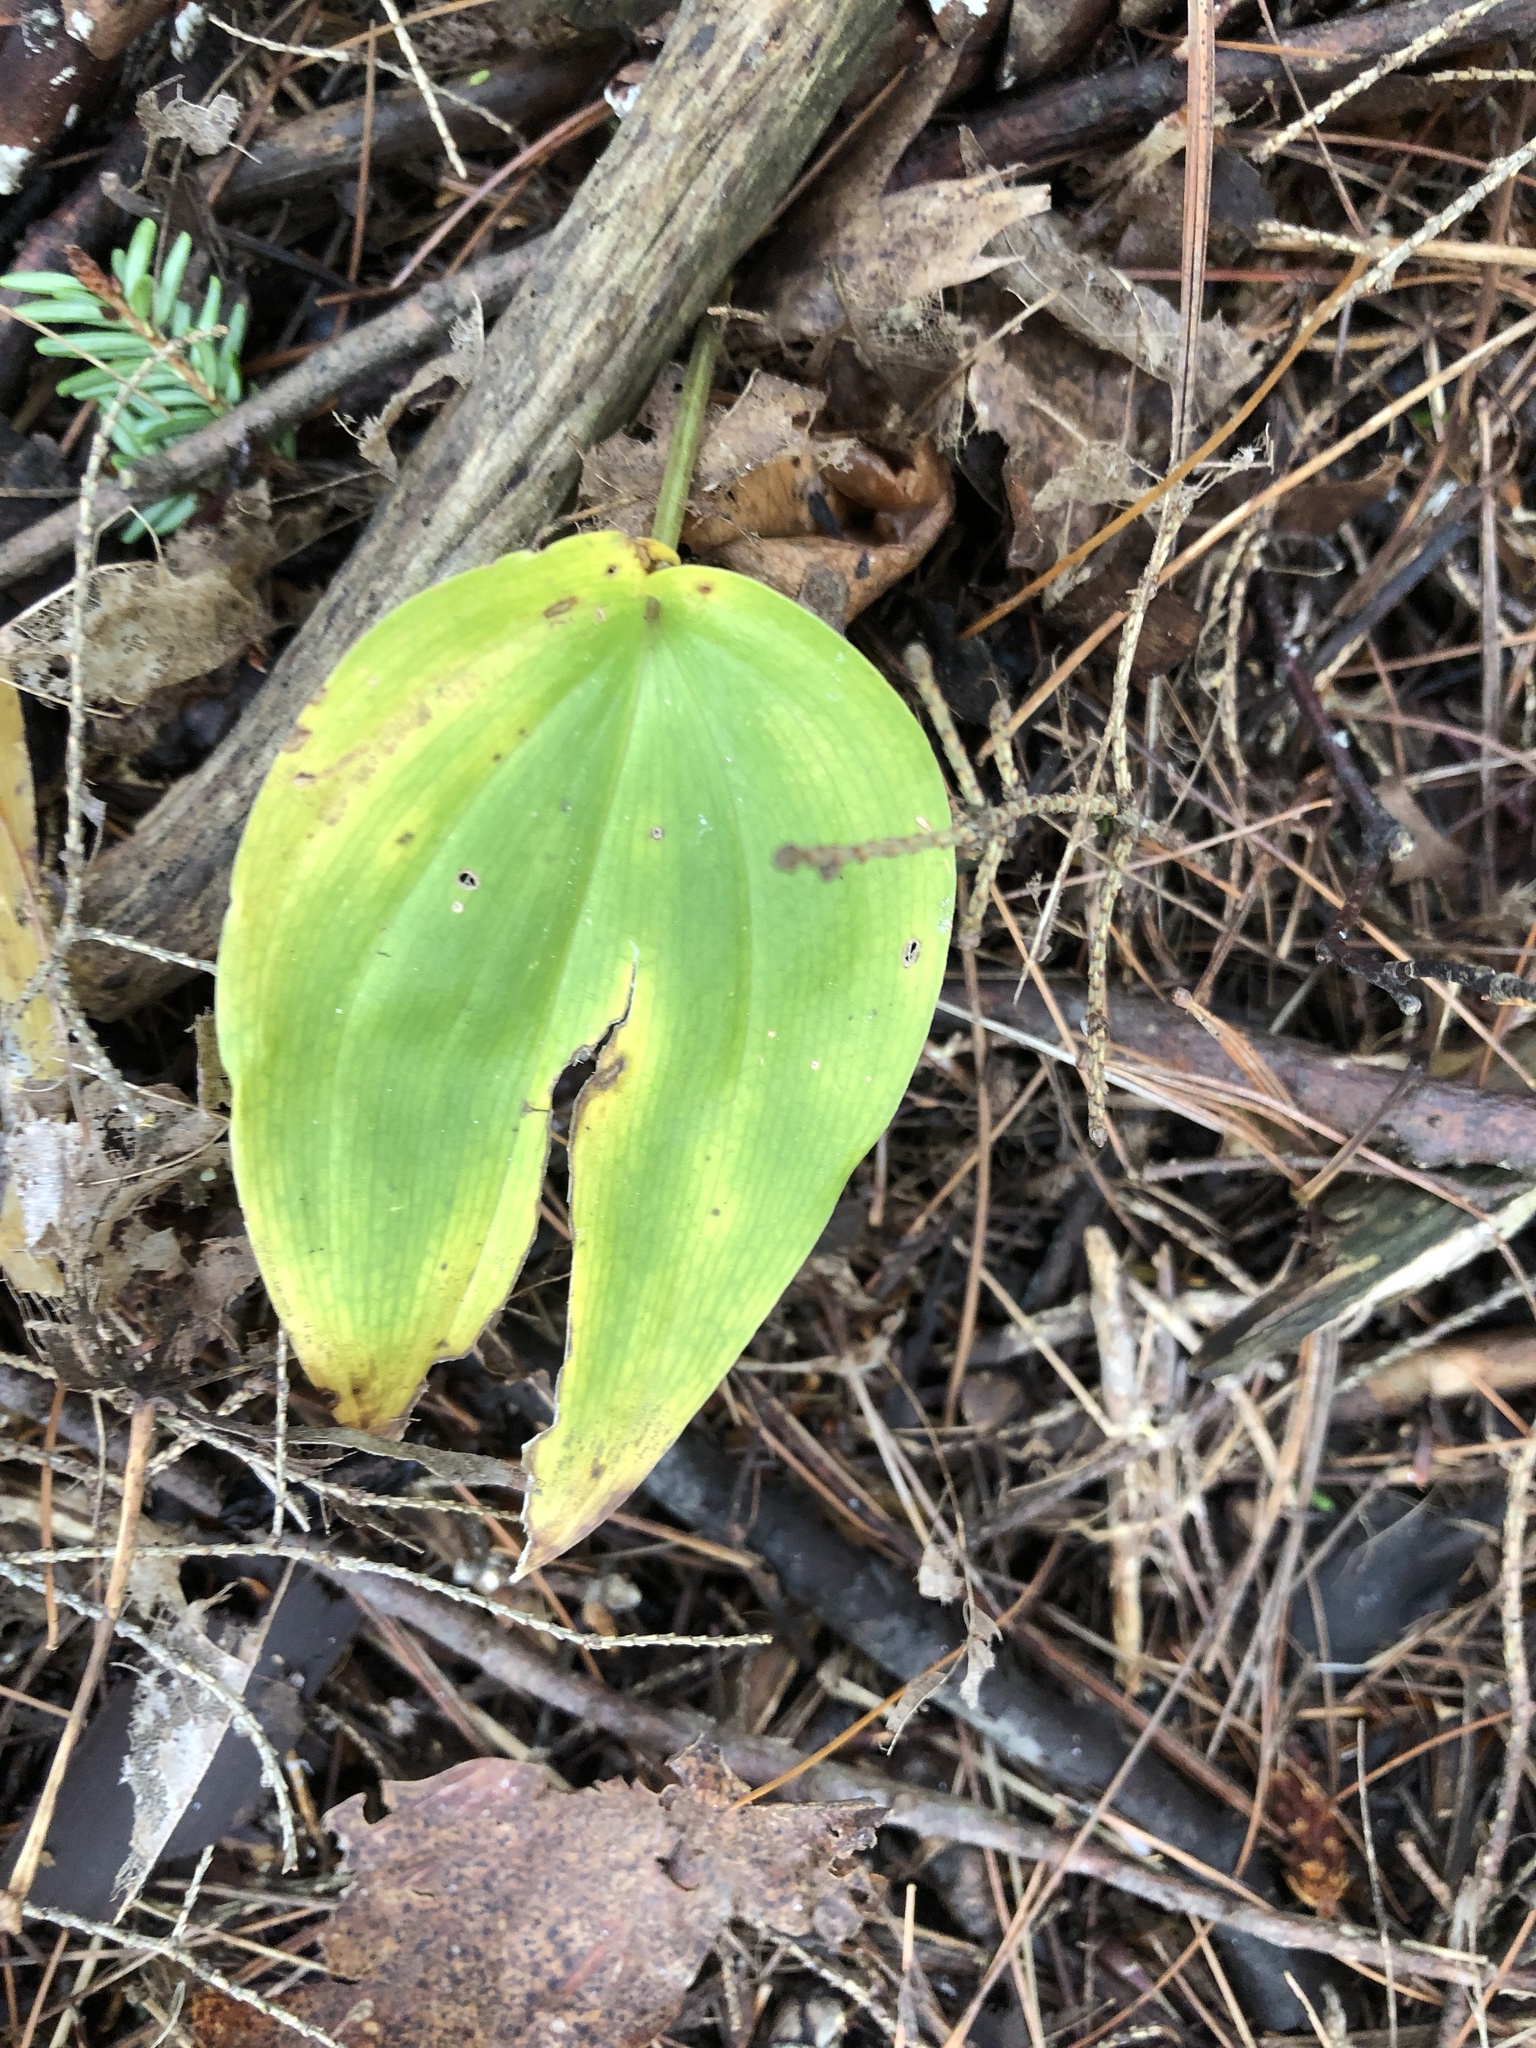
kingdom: Plantae
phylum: Tracheophyta
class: Liliopsida
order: Asparagales
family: Asparagaceae
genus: Maianthemum
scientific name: Maianthemum canadense
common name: False lily-of-the-valley
